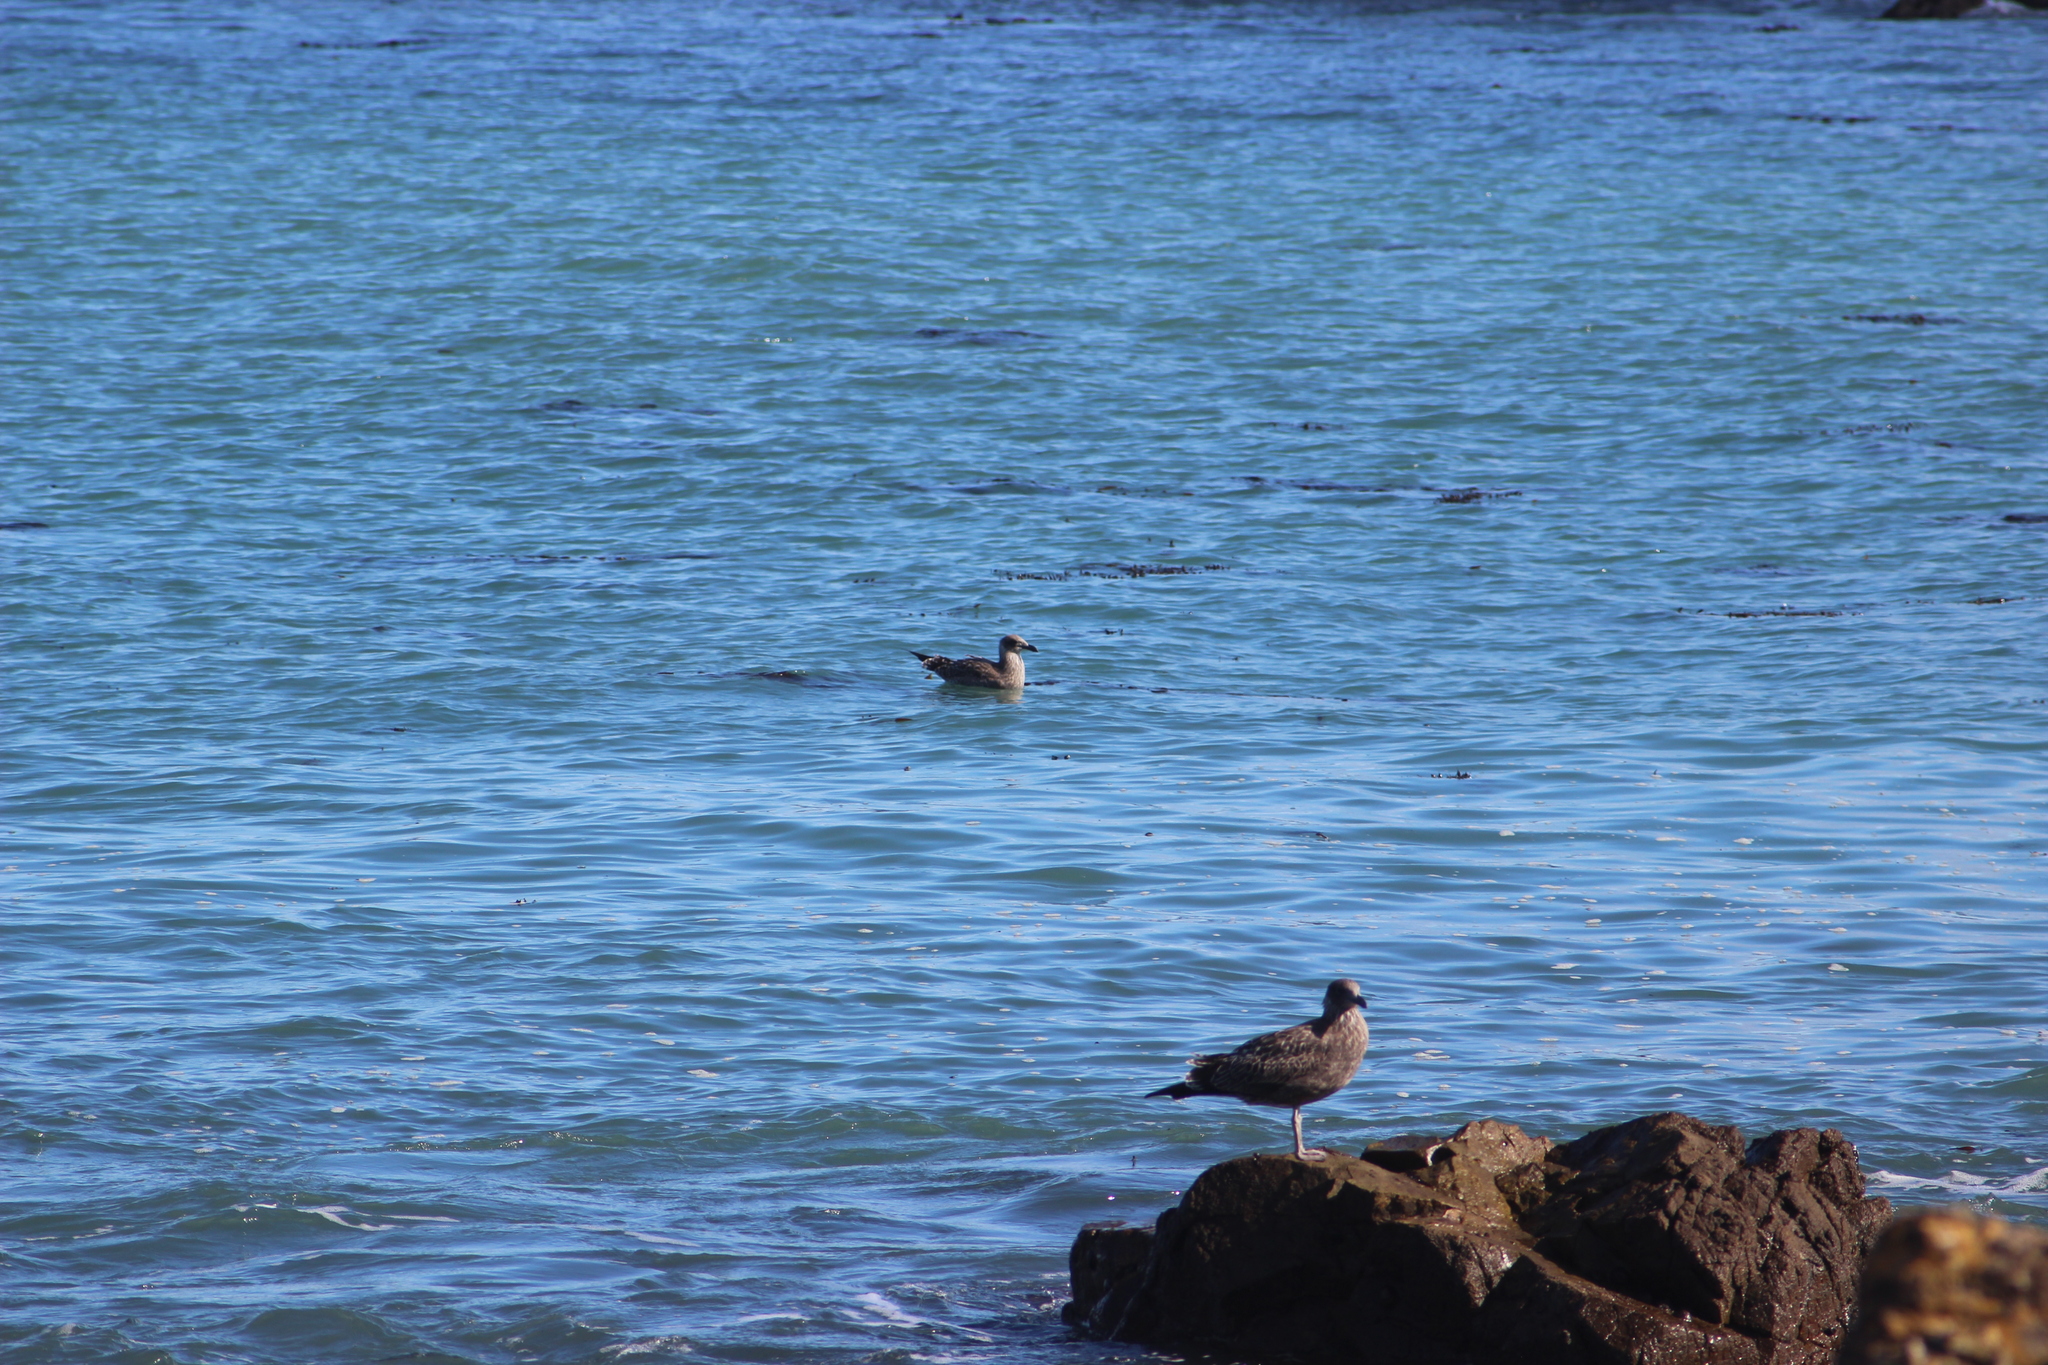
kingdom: Animalia
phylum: Chordata
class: Aves
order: Charadriiformes
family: Laridae
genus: Larus
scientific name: Larus dominicanus
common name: Kelp gull
